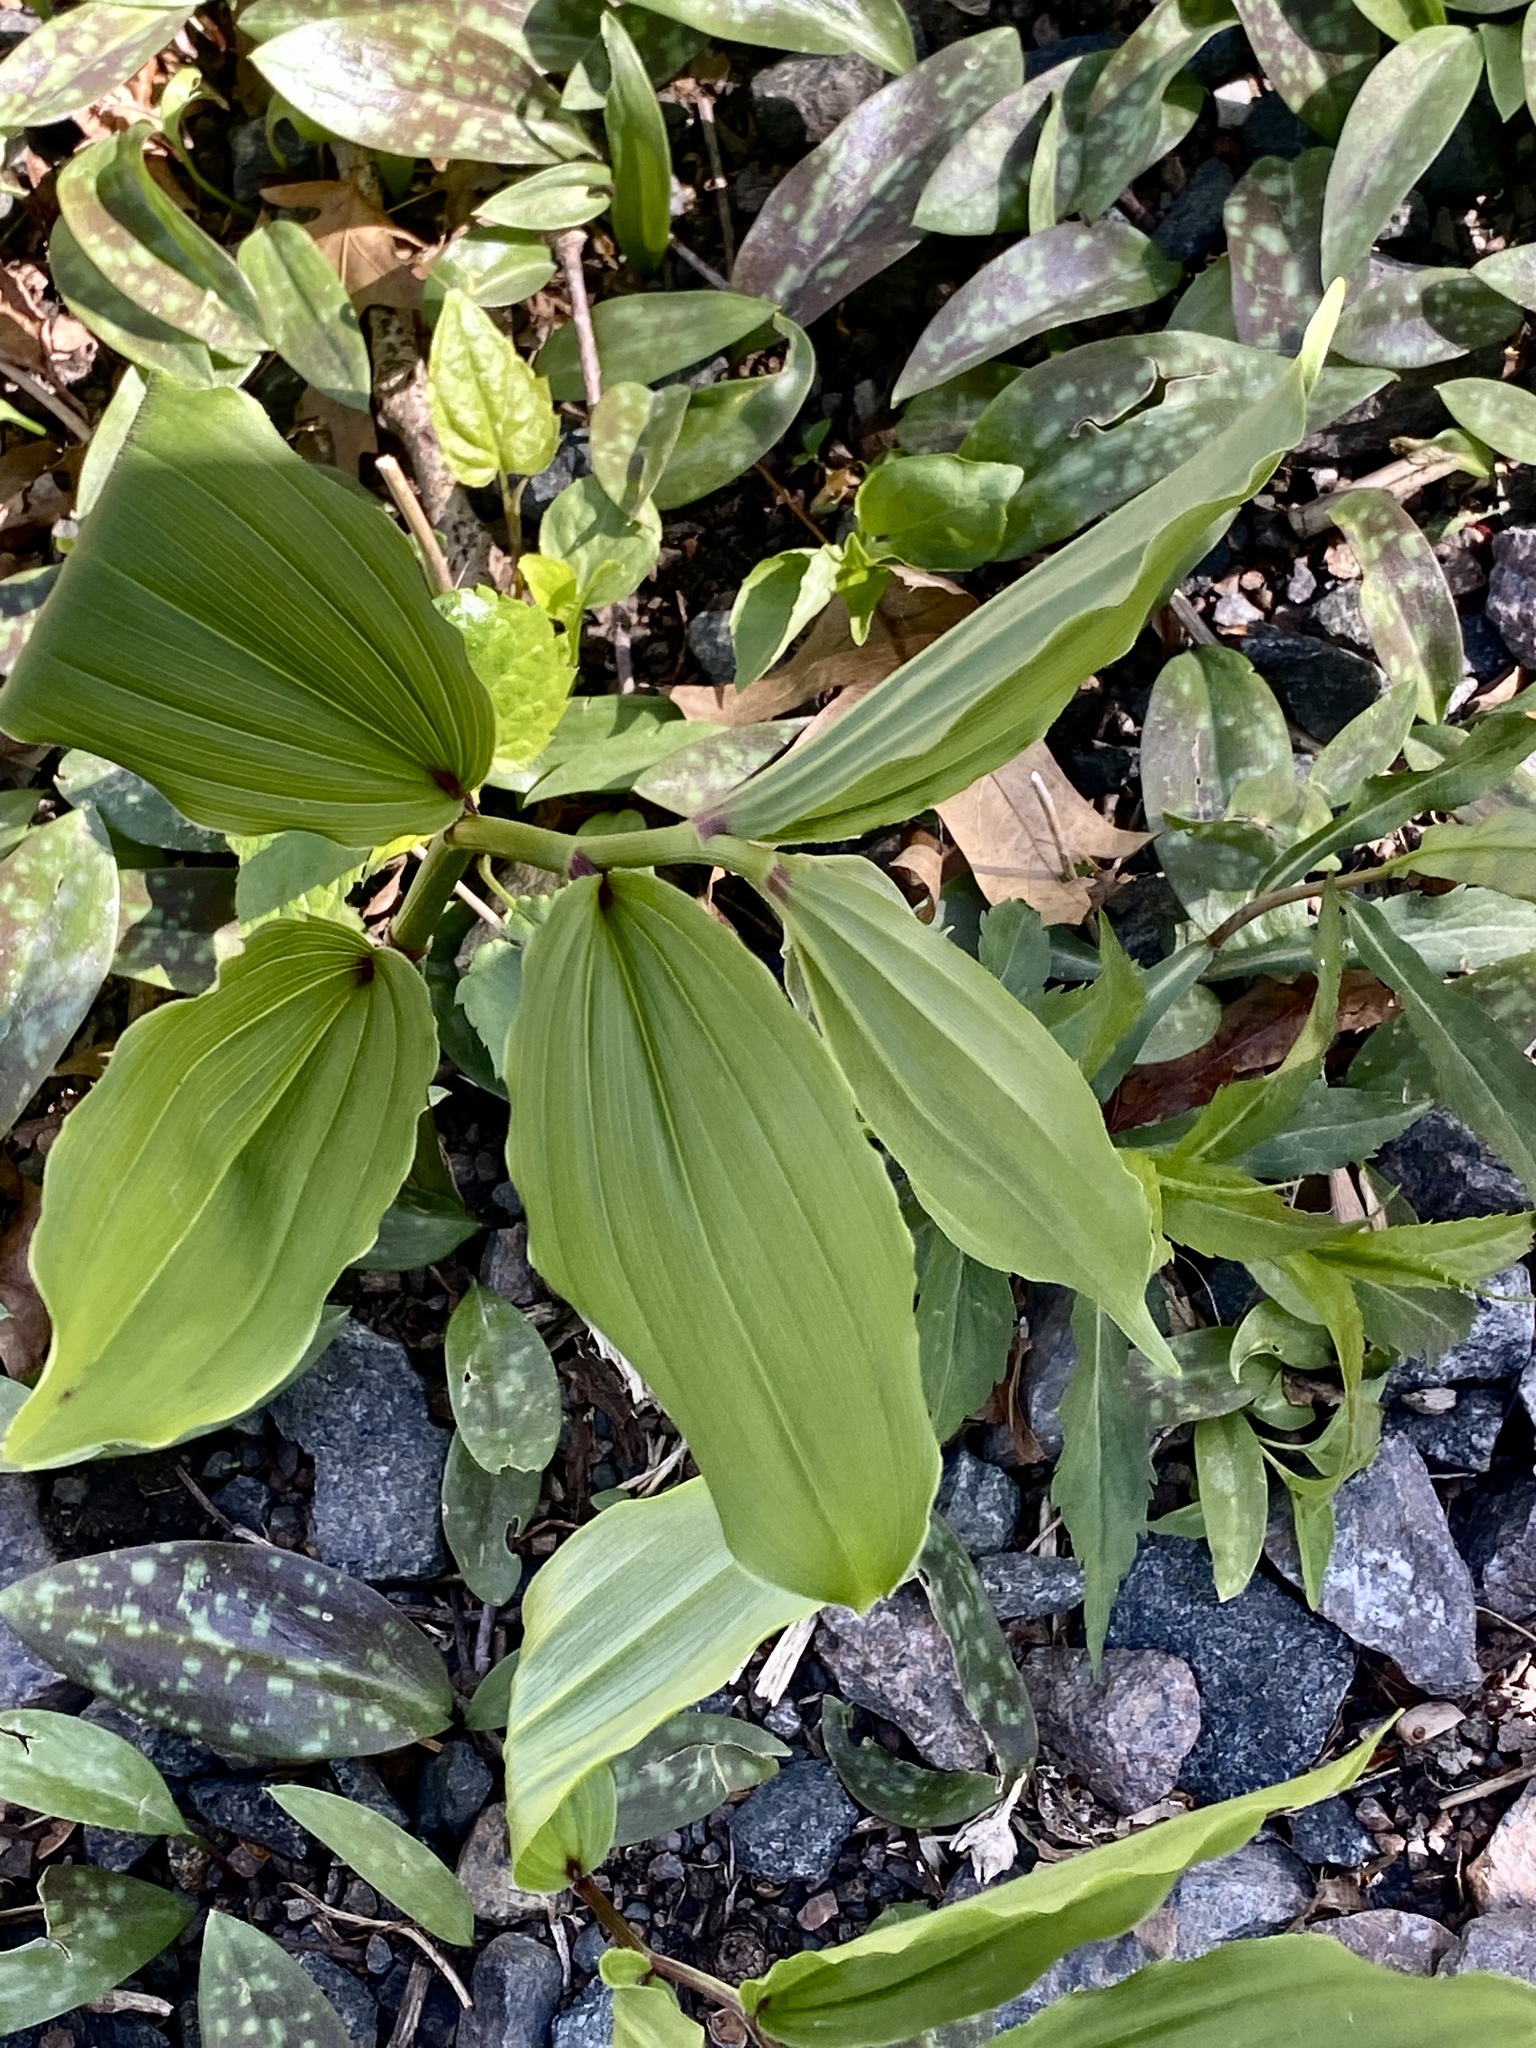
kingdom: Plantae
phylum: Tracheophyta
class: Liliopsida
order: Asparagales
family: Asparagaceae
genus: Maianthemum
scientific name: Maianthemum racemosum
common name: False spikenard
